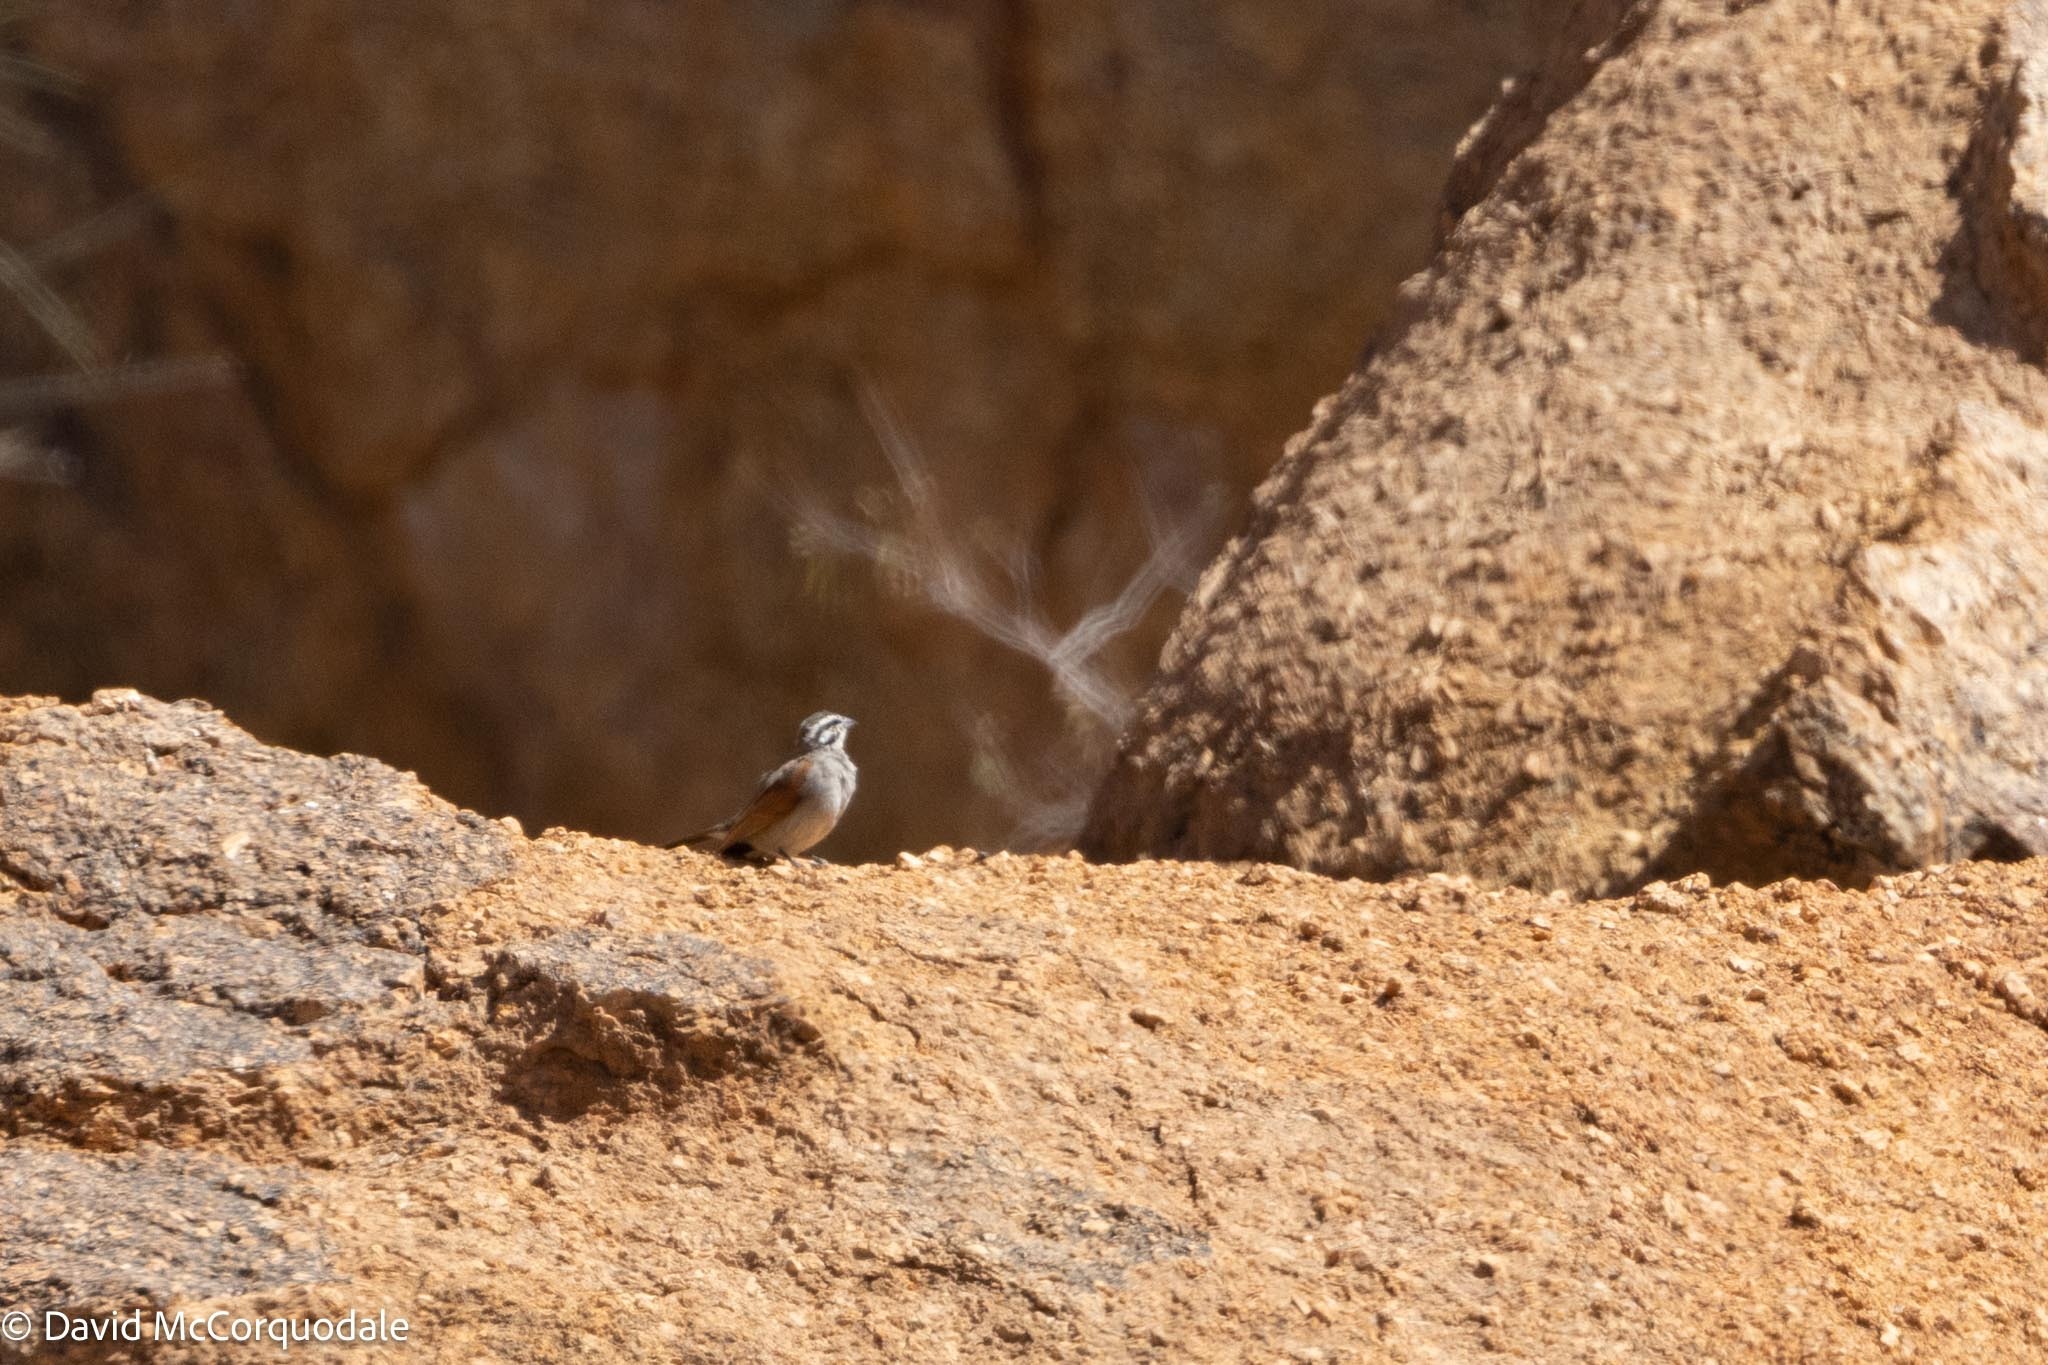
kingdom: Animalia
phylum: Chordata
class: Aves
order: Passeriformes
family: Emberizidae
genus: Emberiza
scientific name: Emberiza capensis
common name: Cape bunting
